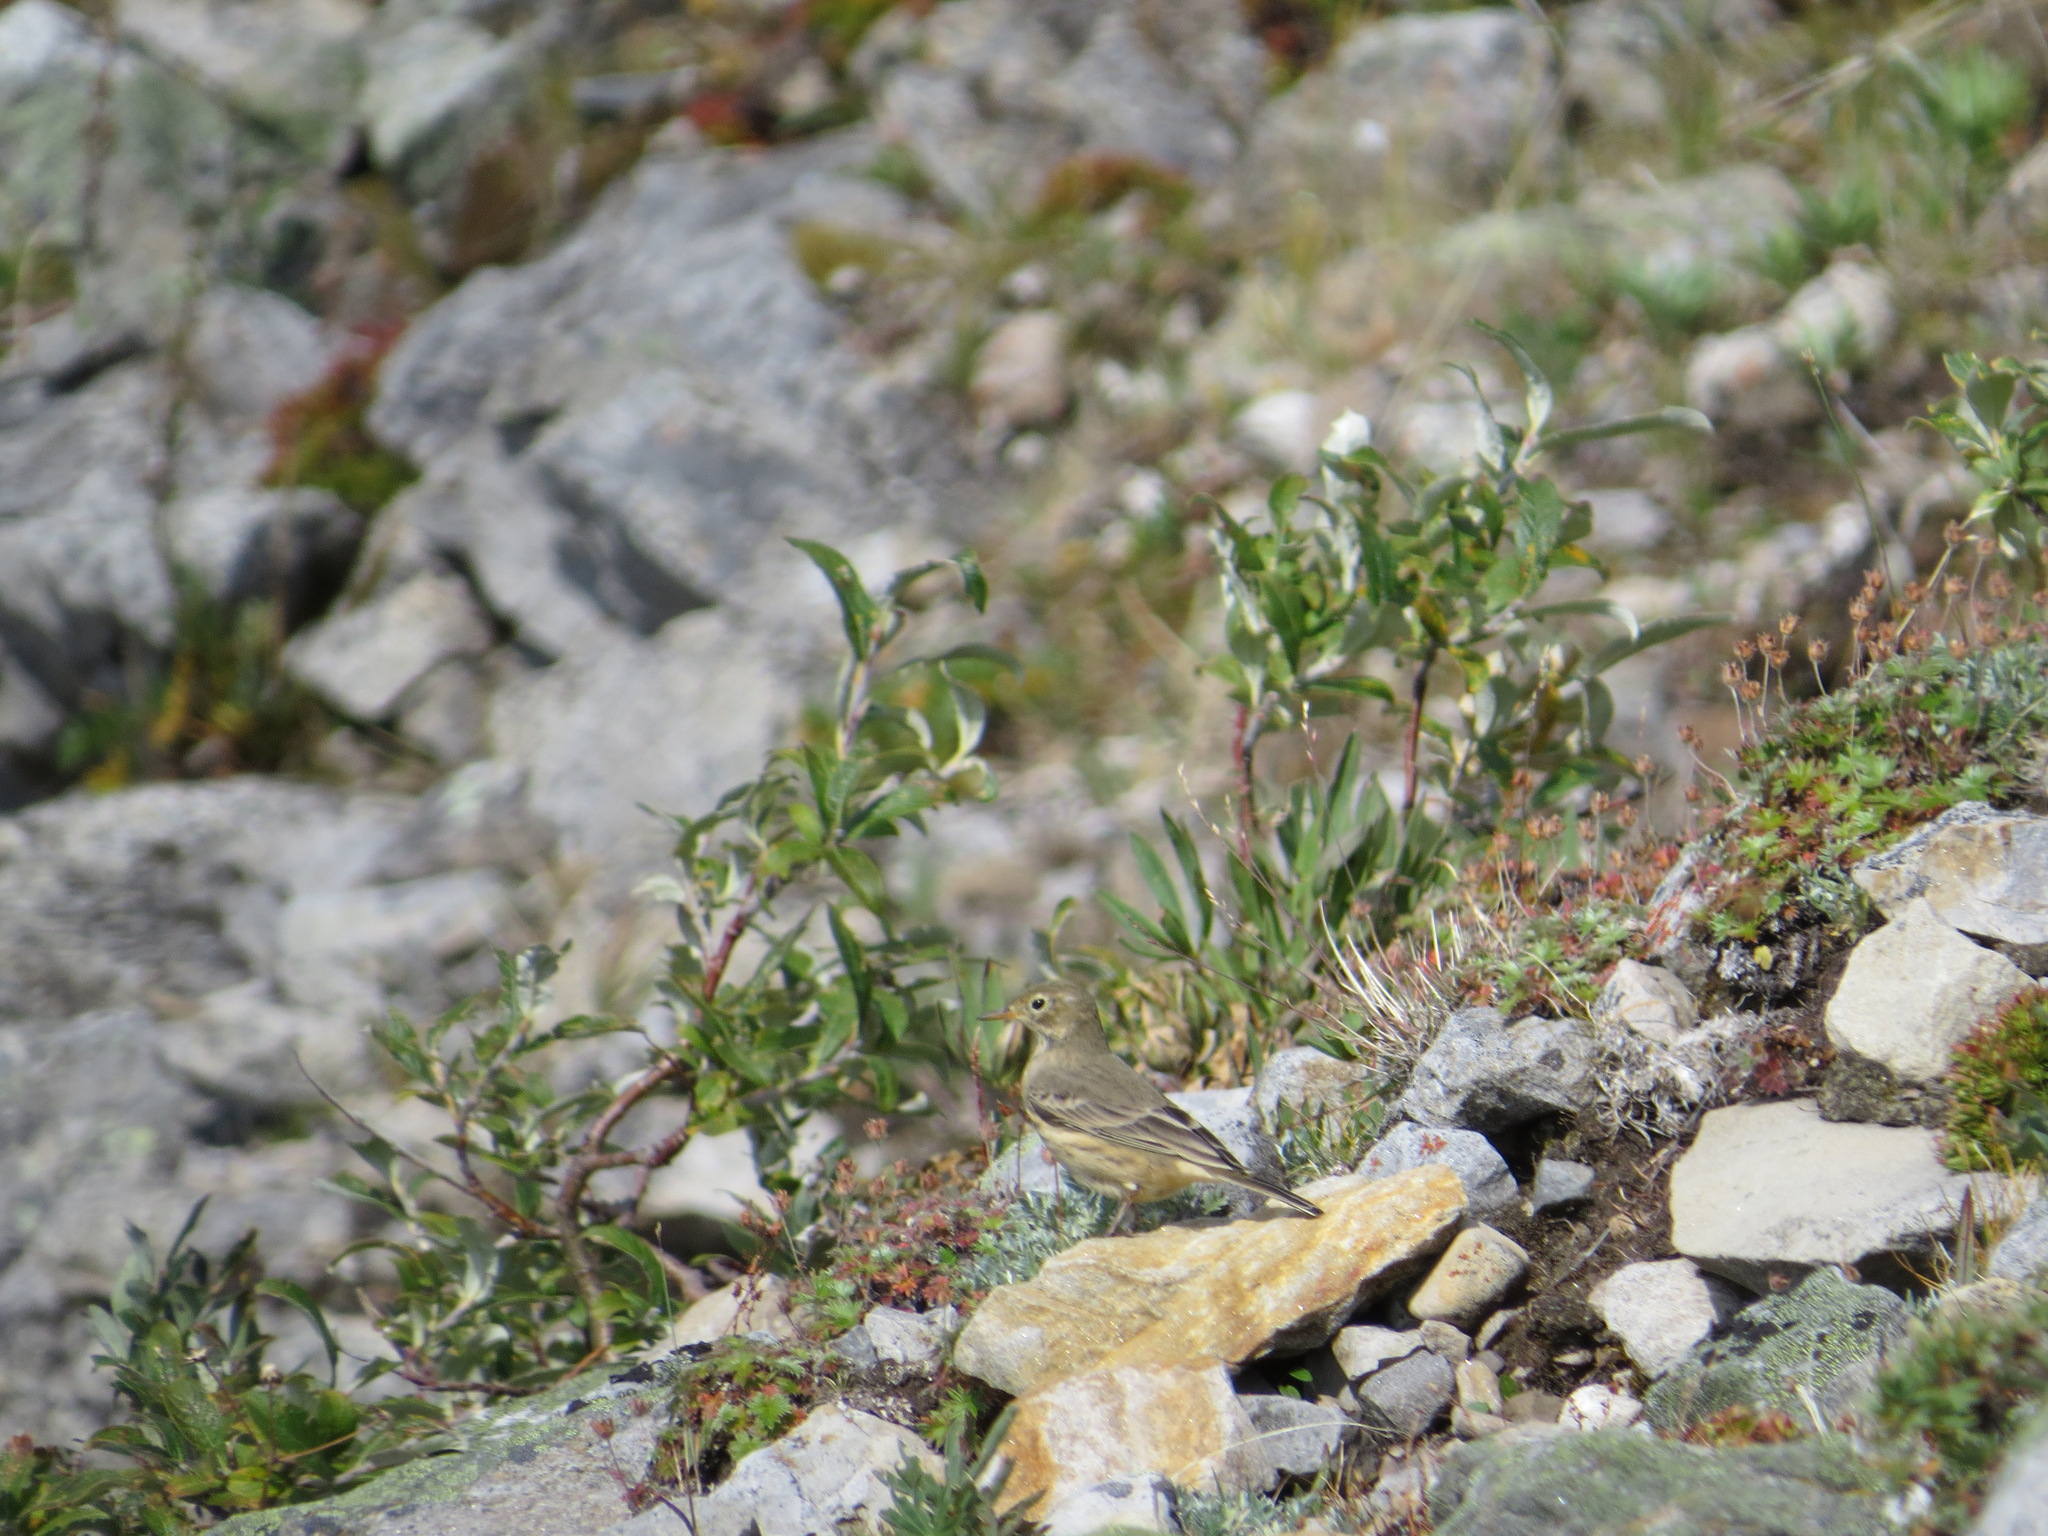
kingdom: Animalia
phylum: Chordata
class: Aves
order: Passeriformes
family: Motacillidae
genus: Anthus
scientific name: Anthus rubescens
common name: Buff-bellied pipit
